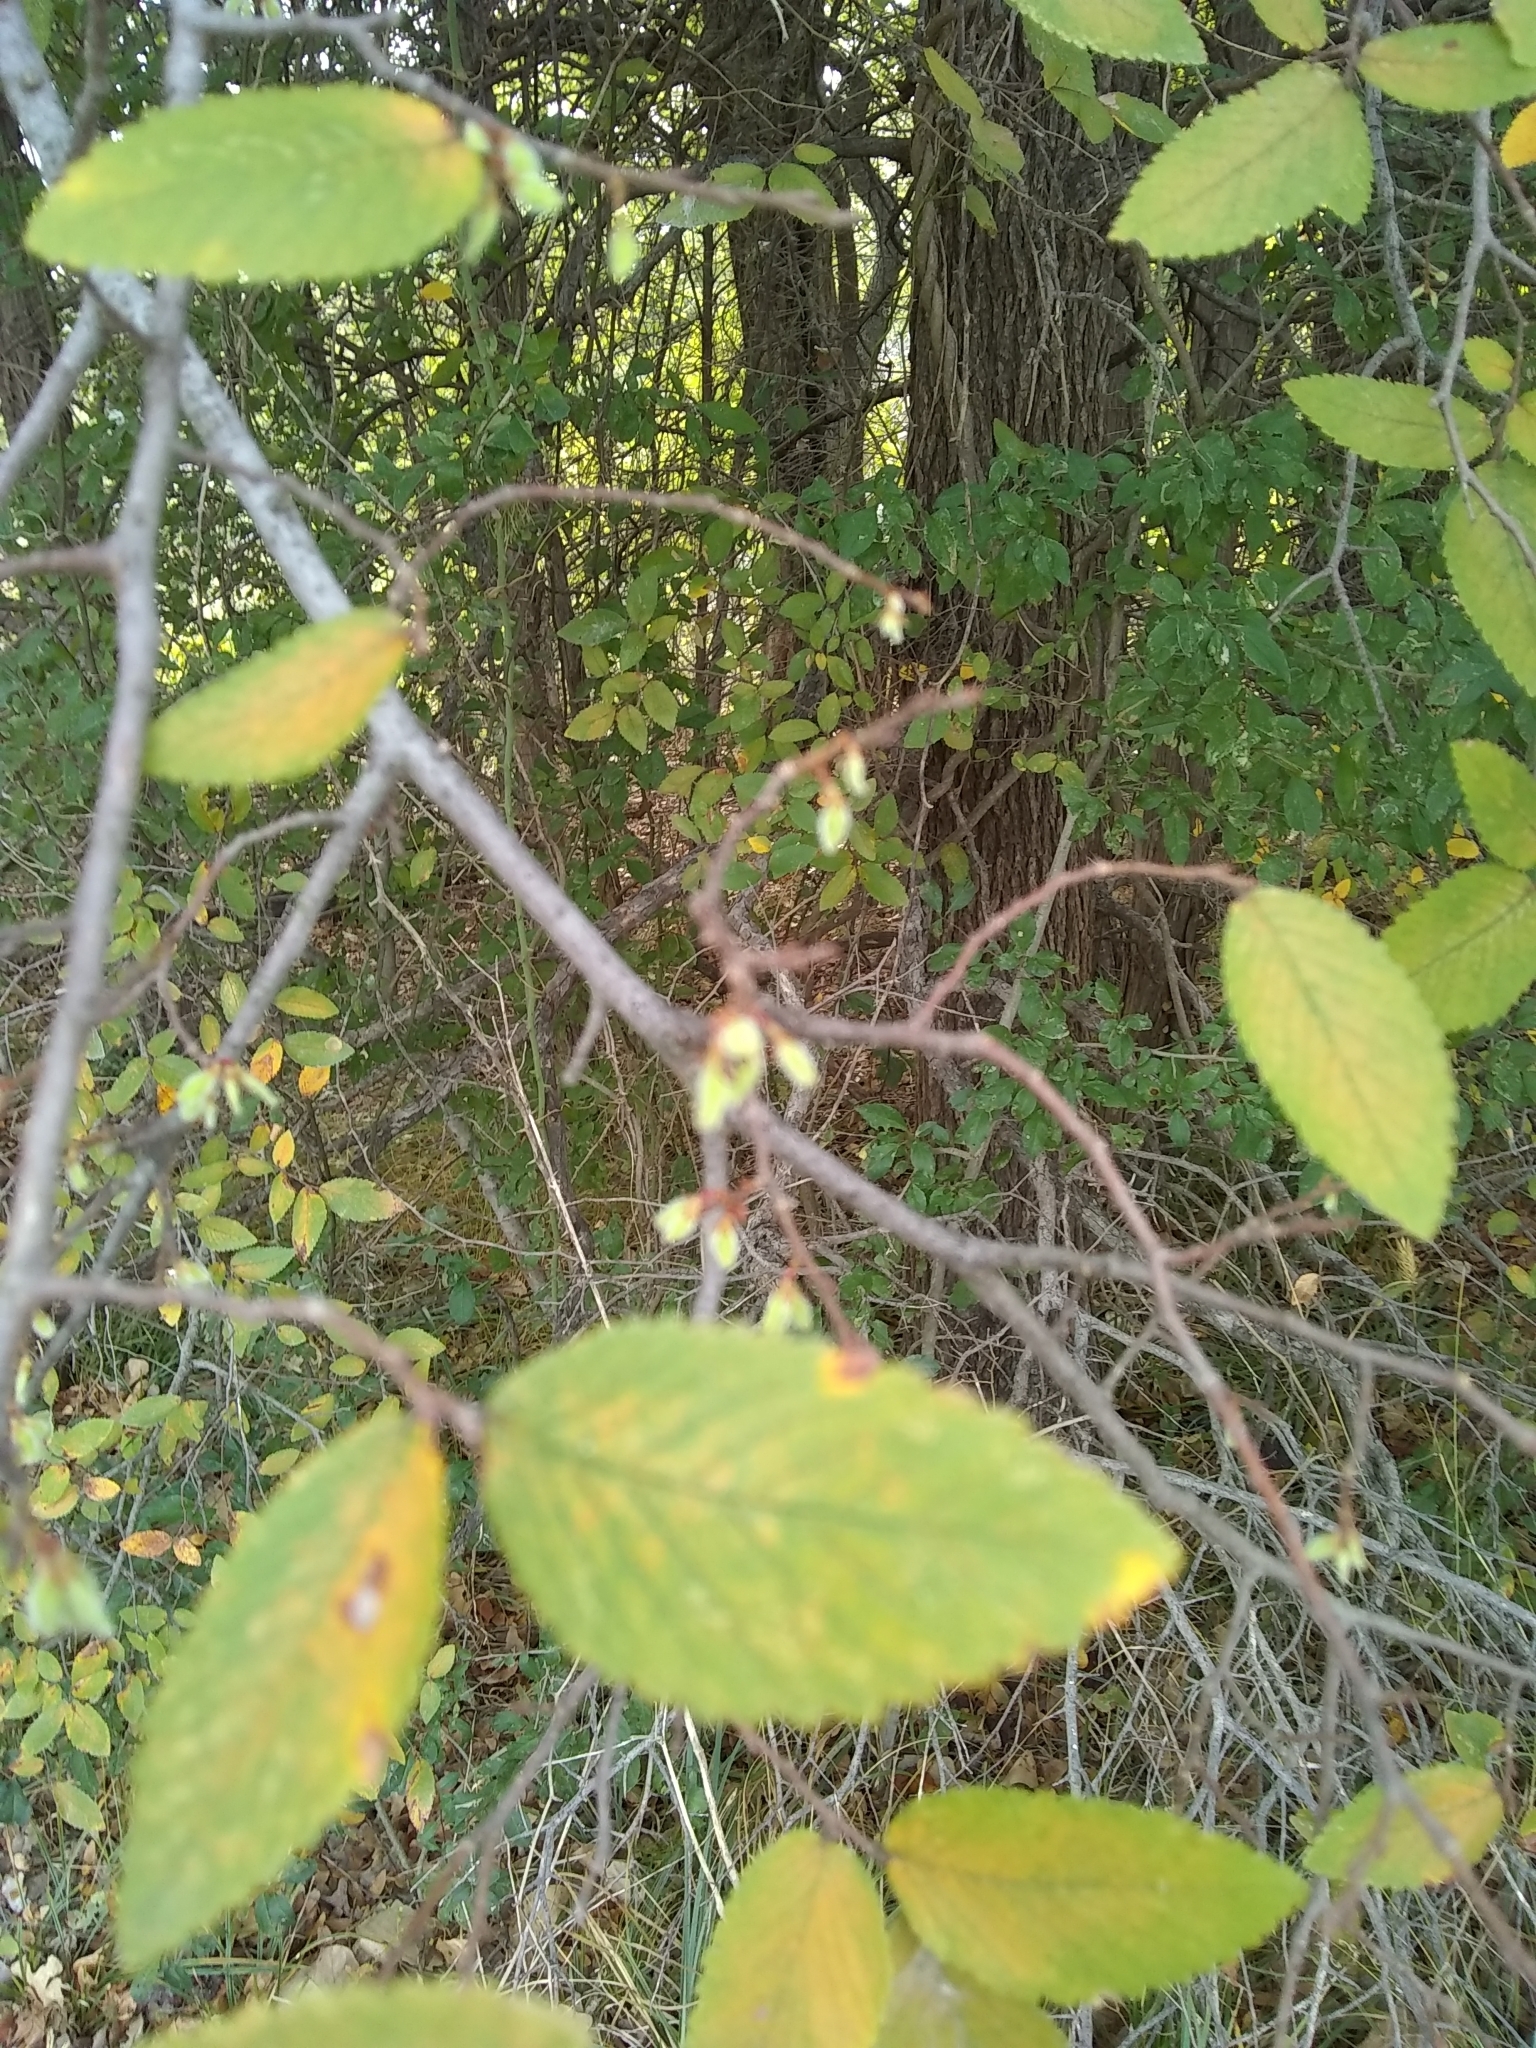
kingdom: Plantae
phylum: Tracheophyta
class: Magnoliopsida
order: Rosales
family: Ulmaceae
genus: Ulmus
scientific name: Ulmus crassifolia
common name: Basket elm
